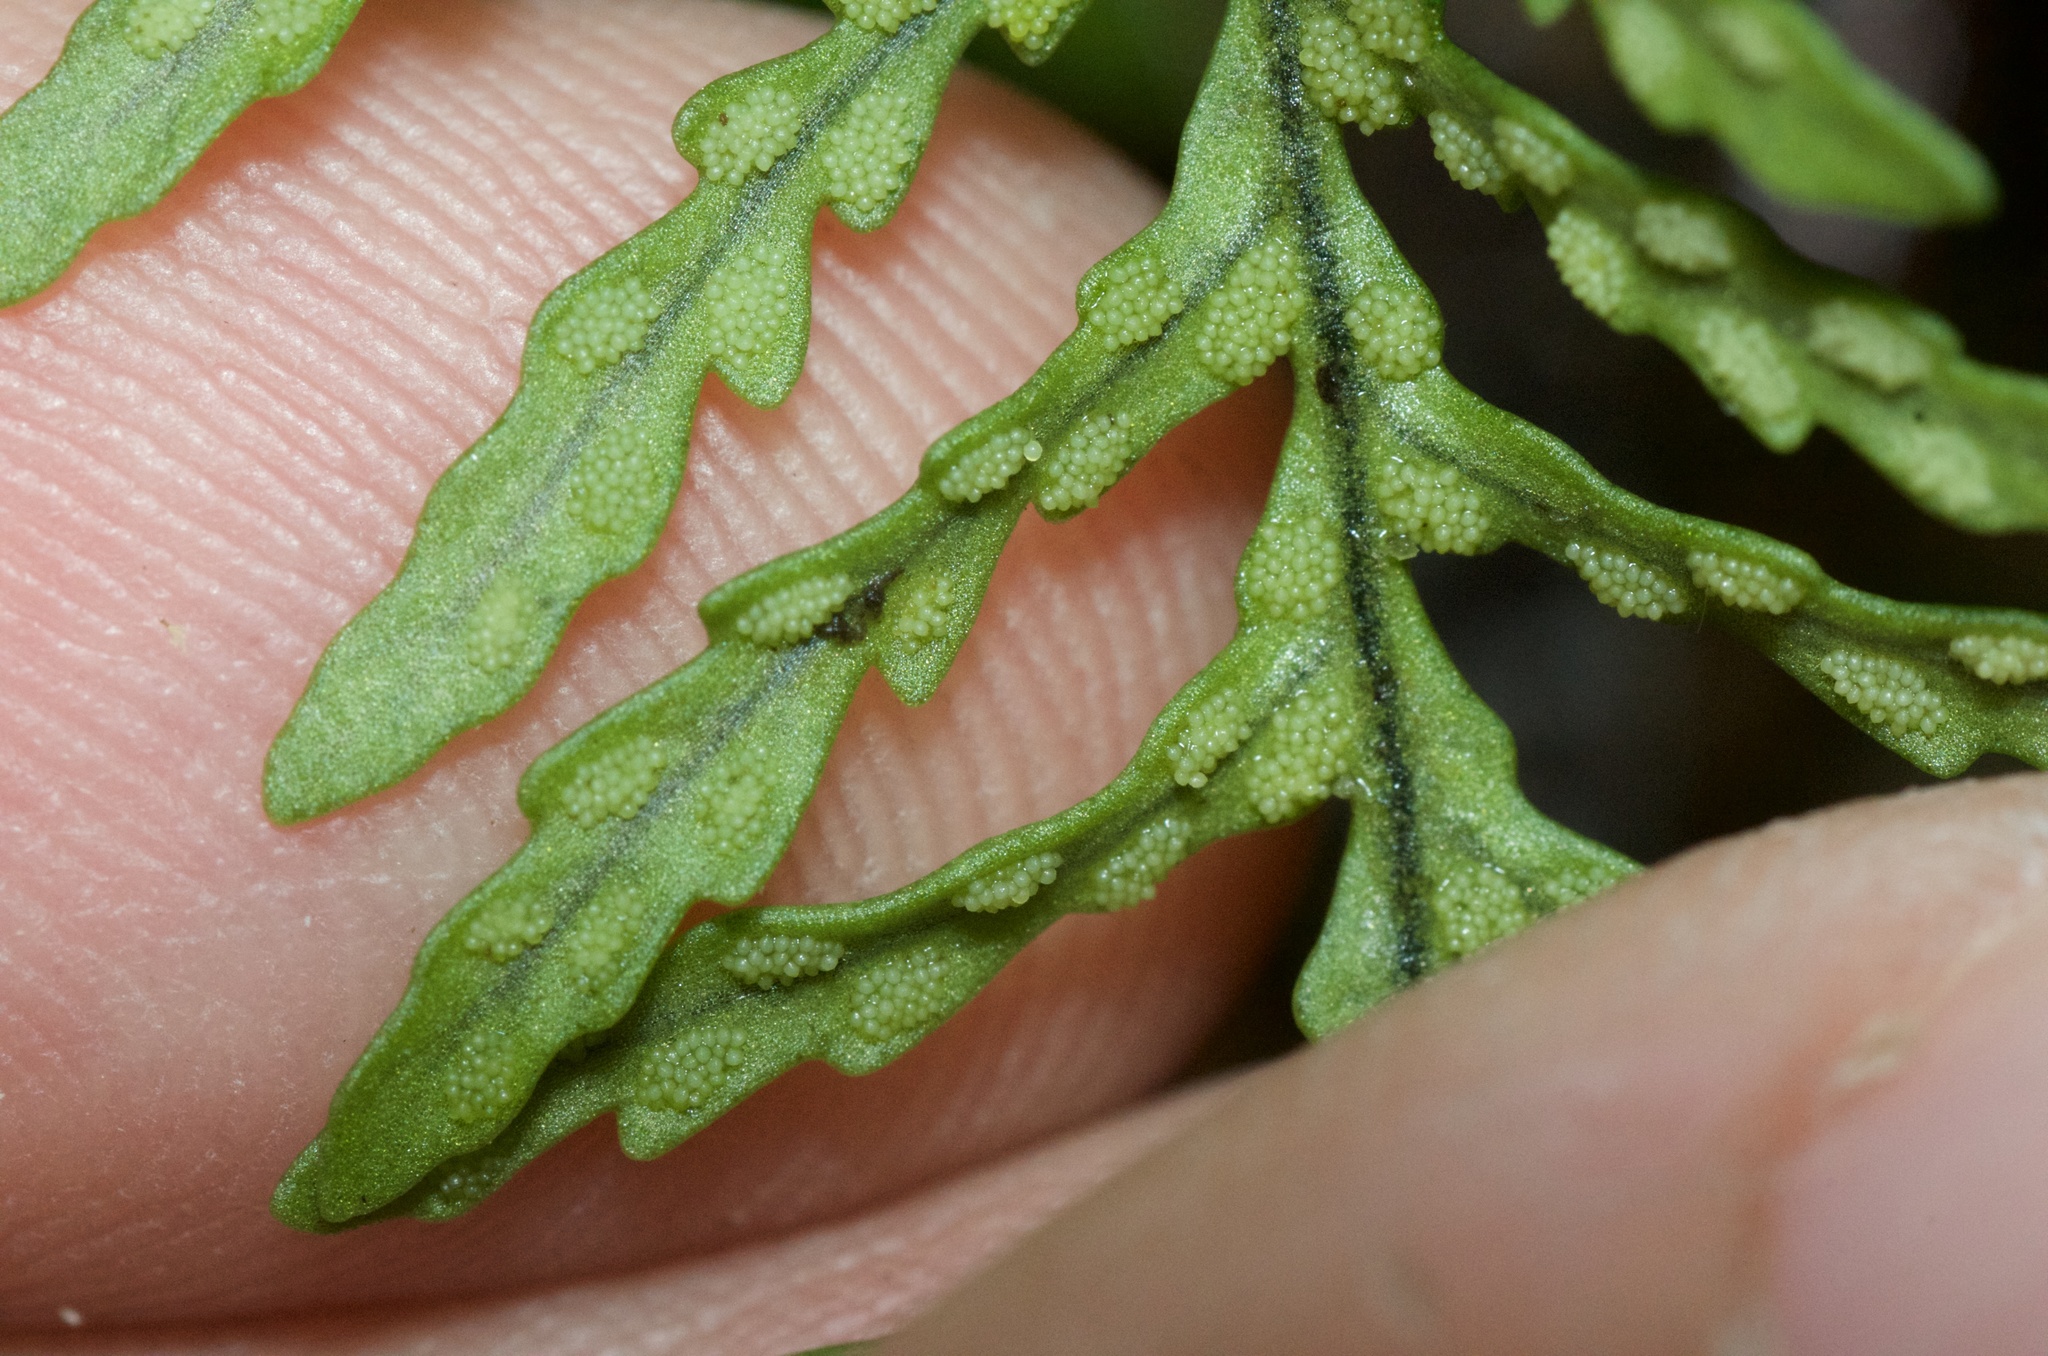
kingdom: Plantae
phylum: Tracheophyta
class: Polypodiopsida
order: Polypodiales
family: Polypodiaceae
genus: Notogrammitis
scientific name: Notogrammitis heterophylla
